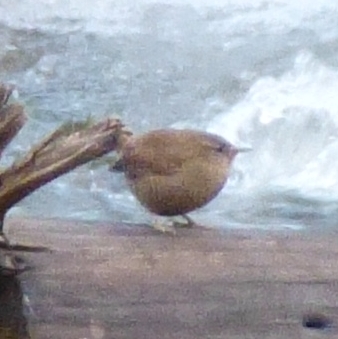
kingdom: Animalia
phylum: Chordata
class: Aves
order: Passeriformes
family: Troglodytidae
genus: Troglodytes
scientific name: Troglodytes troglodytes
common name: Eurasian wren
